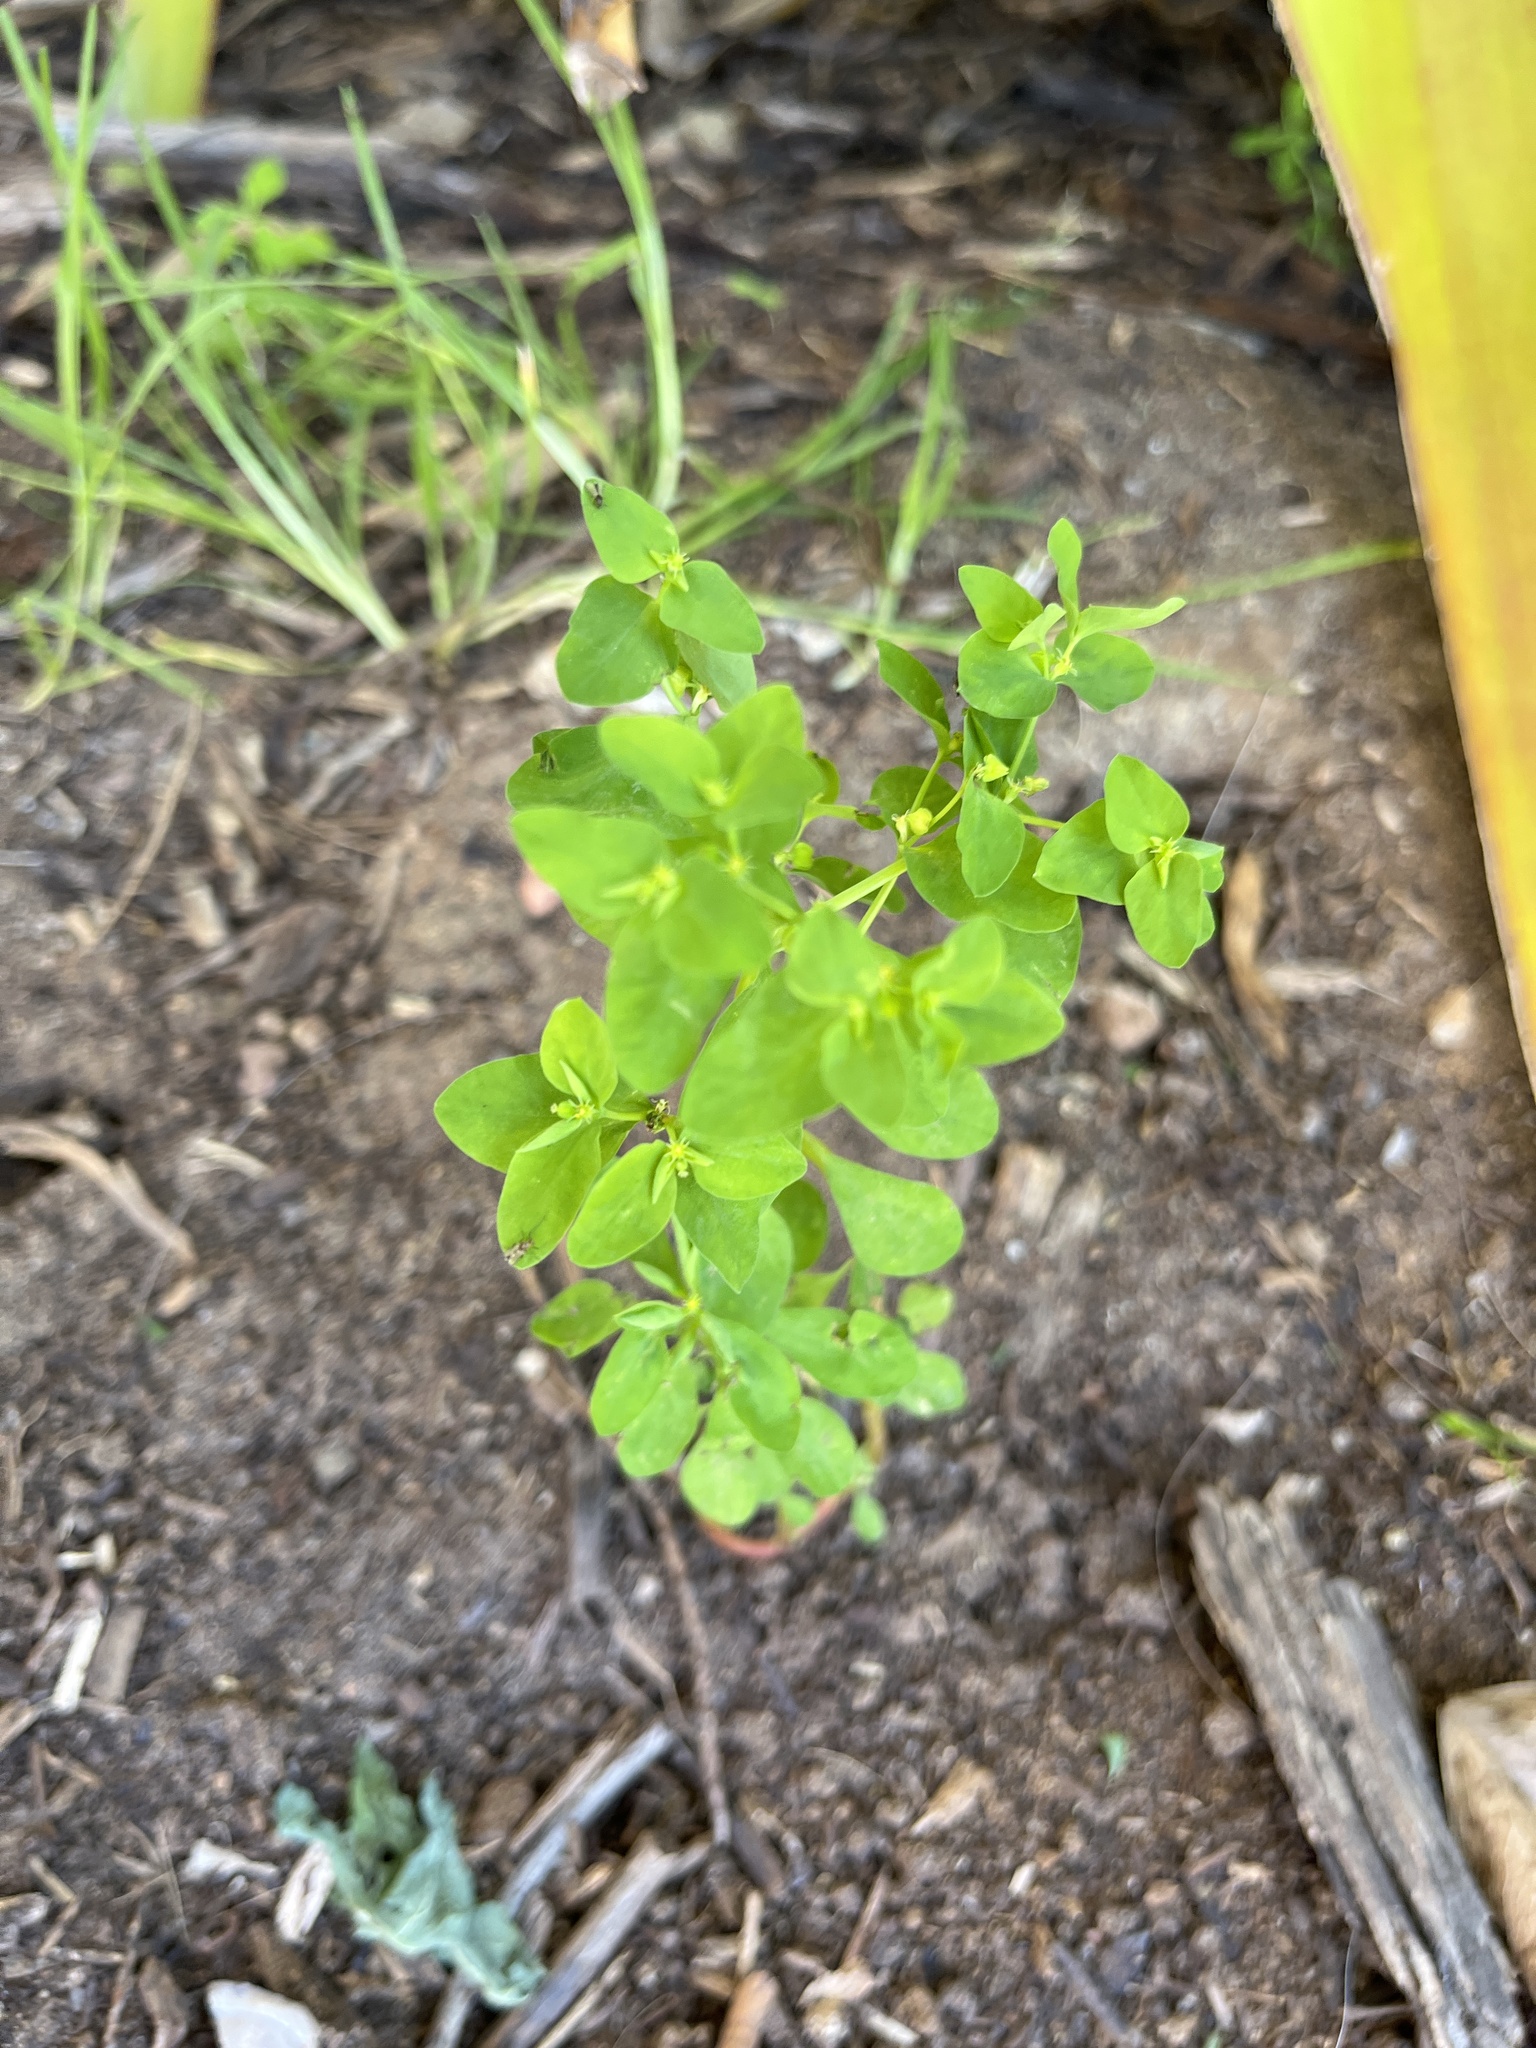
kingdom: Plantae
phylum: Tracheophyta
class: Magnoliopsida
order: Malpighiales
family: Euphorbiaceae
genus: Euphorbia
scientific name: Euphorbia peplus
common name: Petty spurge
